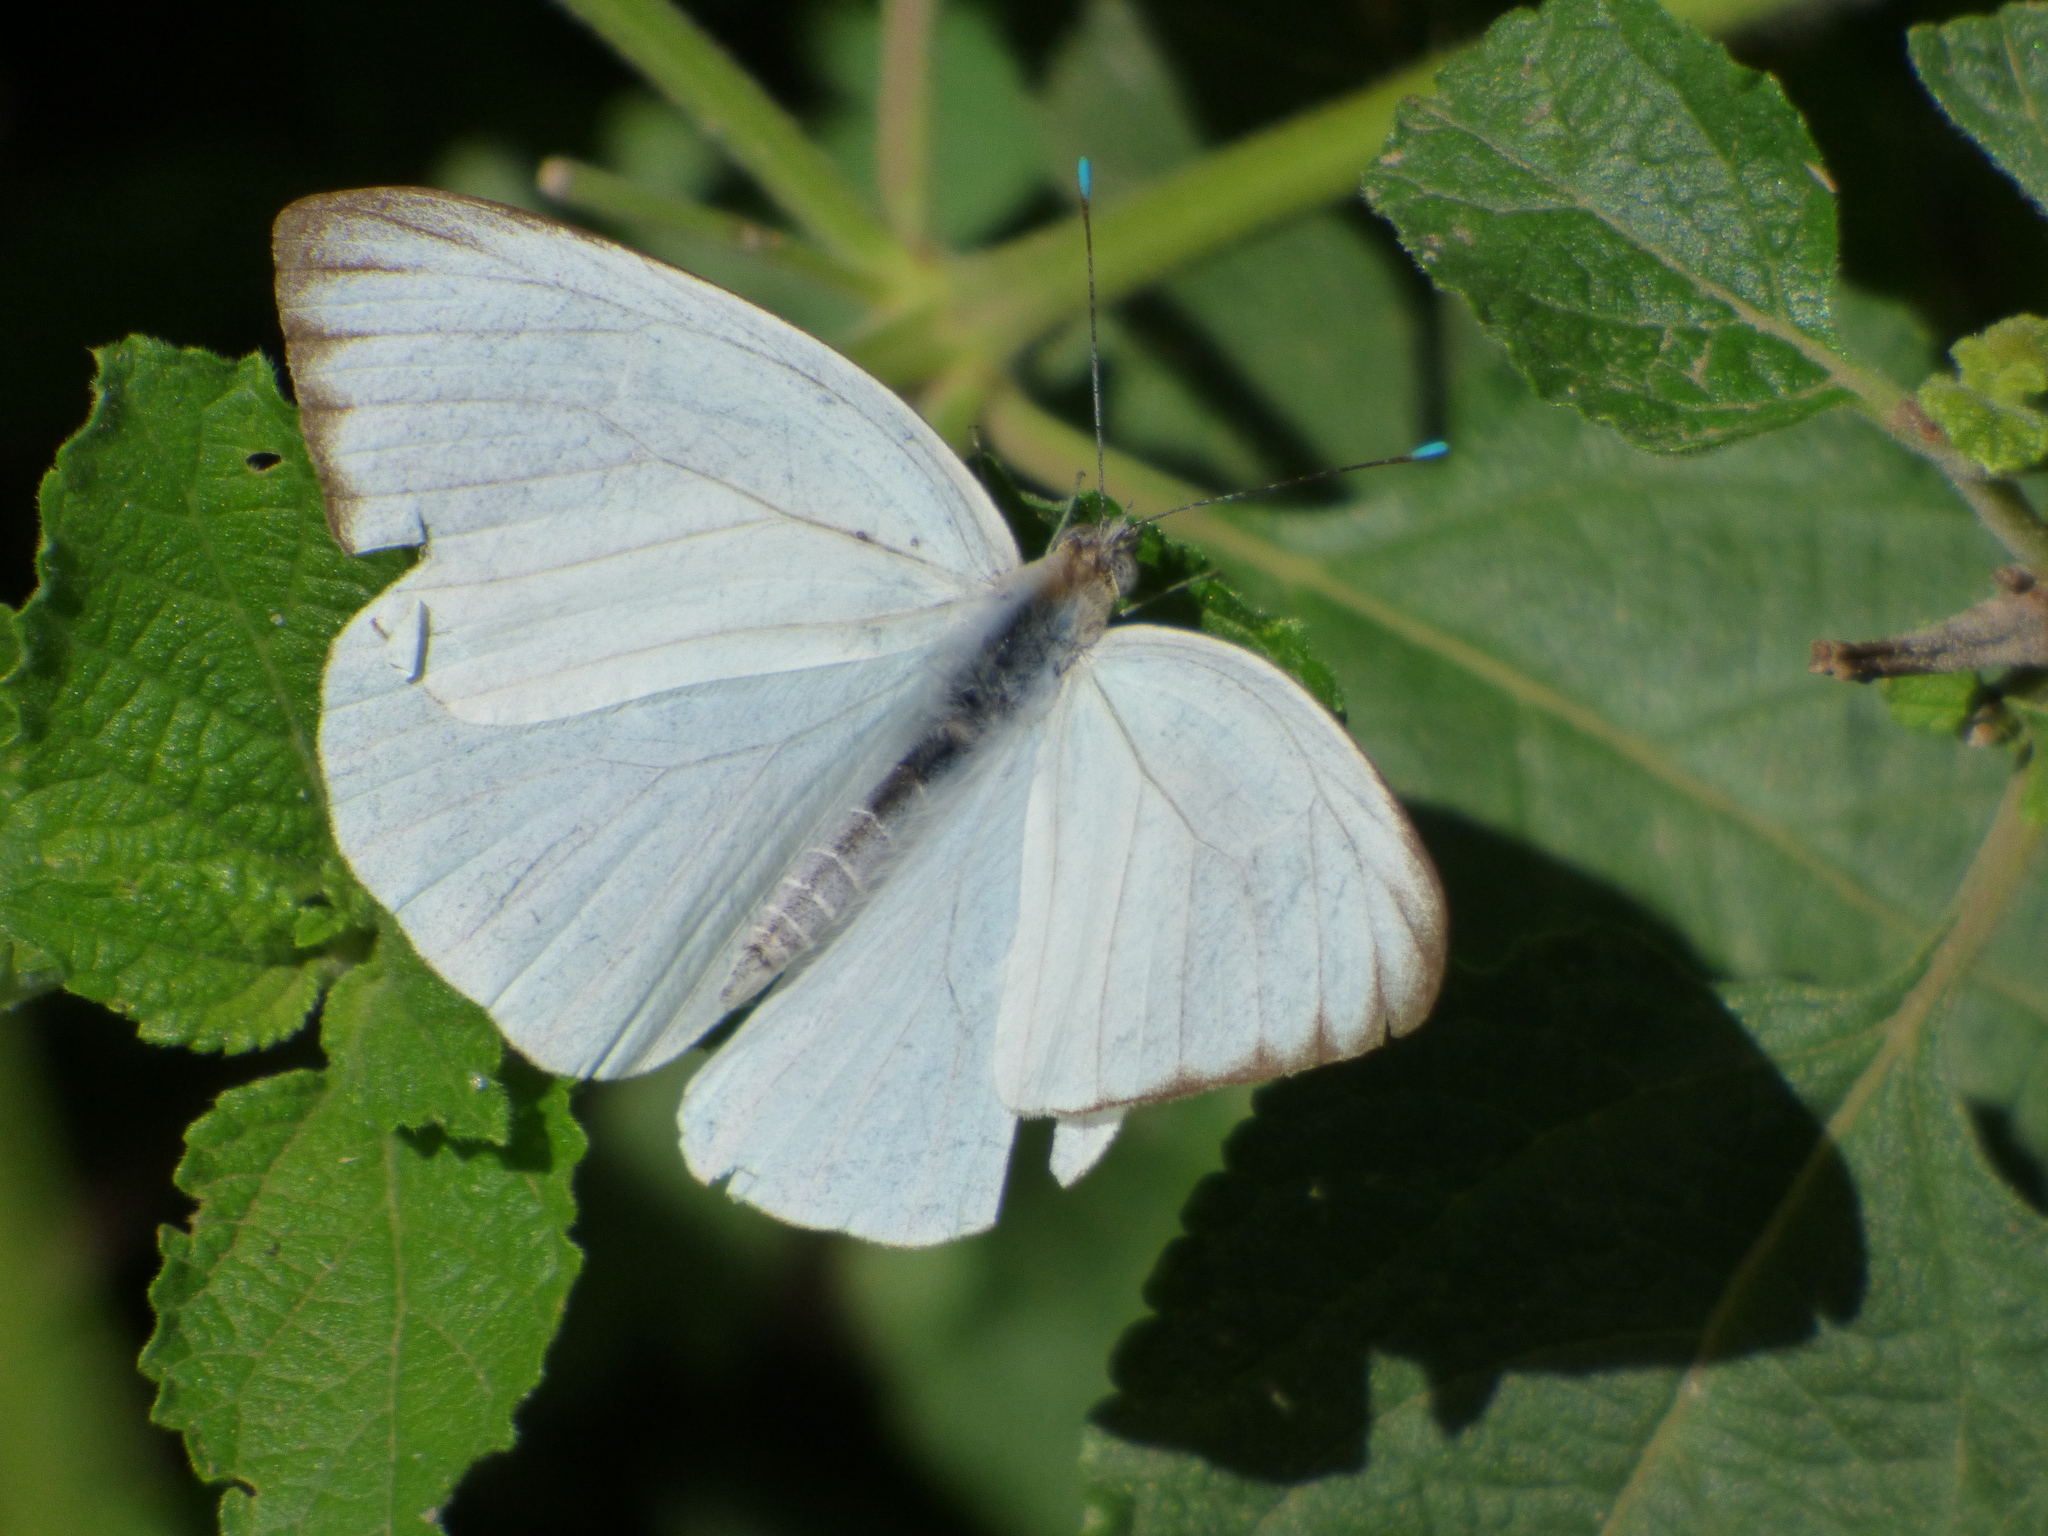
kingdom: Animalia
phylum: Arthropoda
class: Insecta
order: Lepidoptera
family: Pieridae
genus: Ascia
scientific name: Ascia monuste
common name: Great southern white
